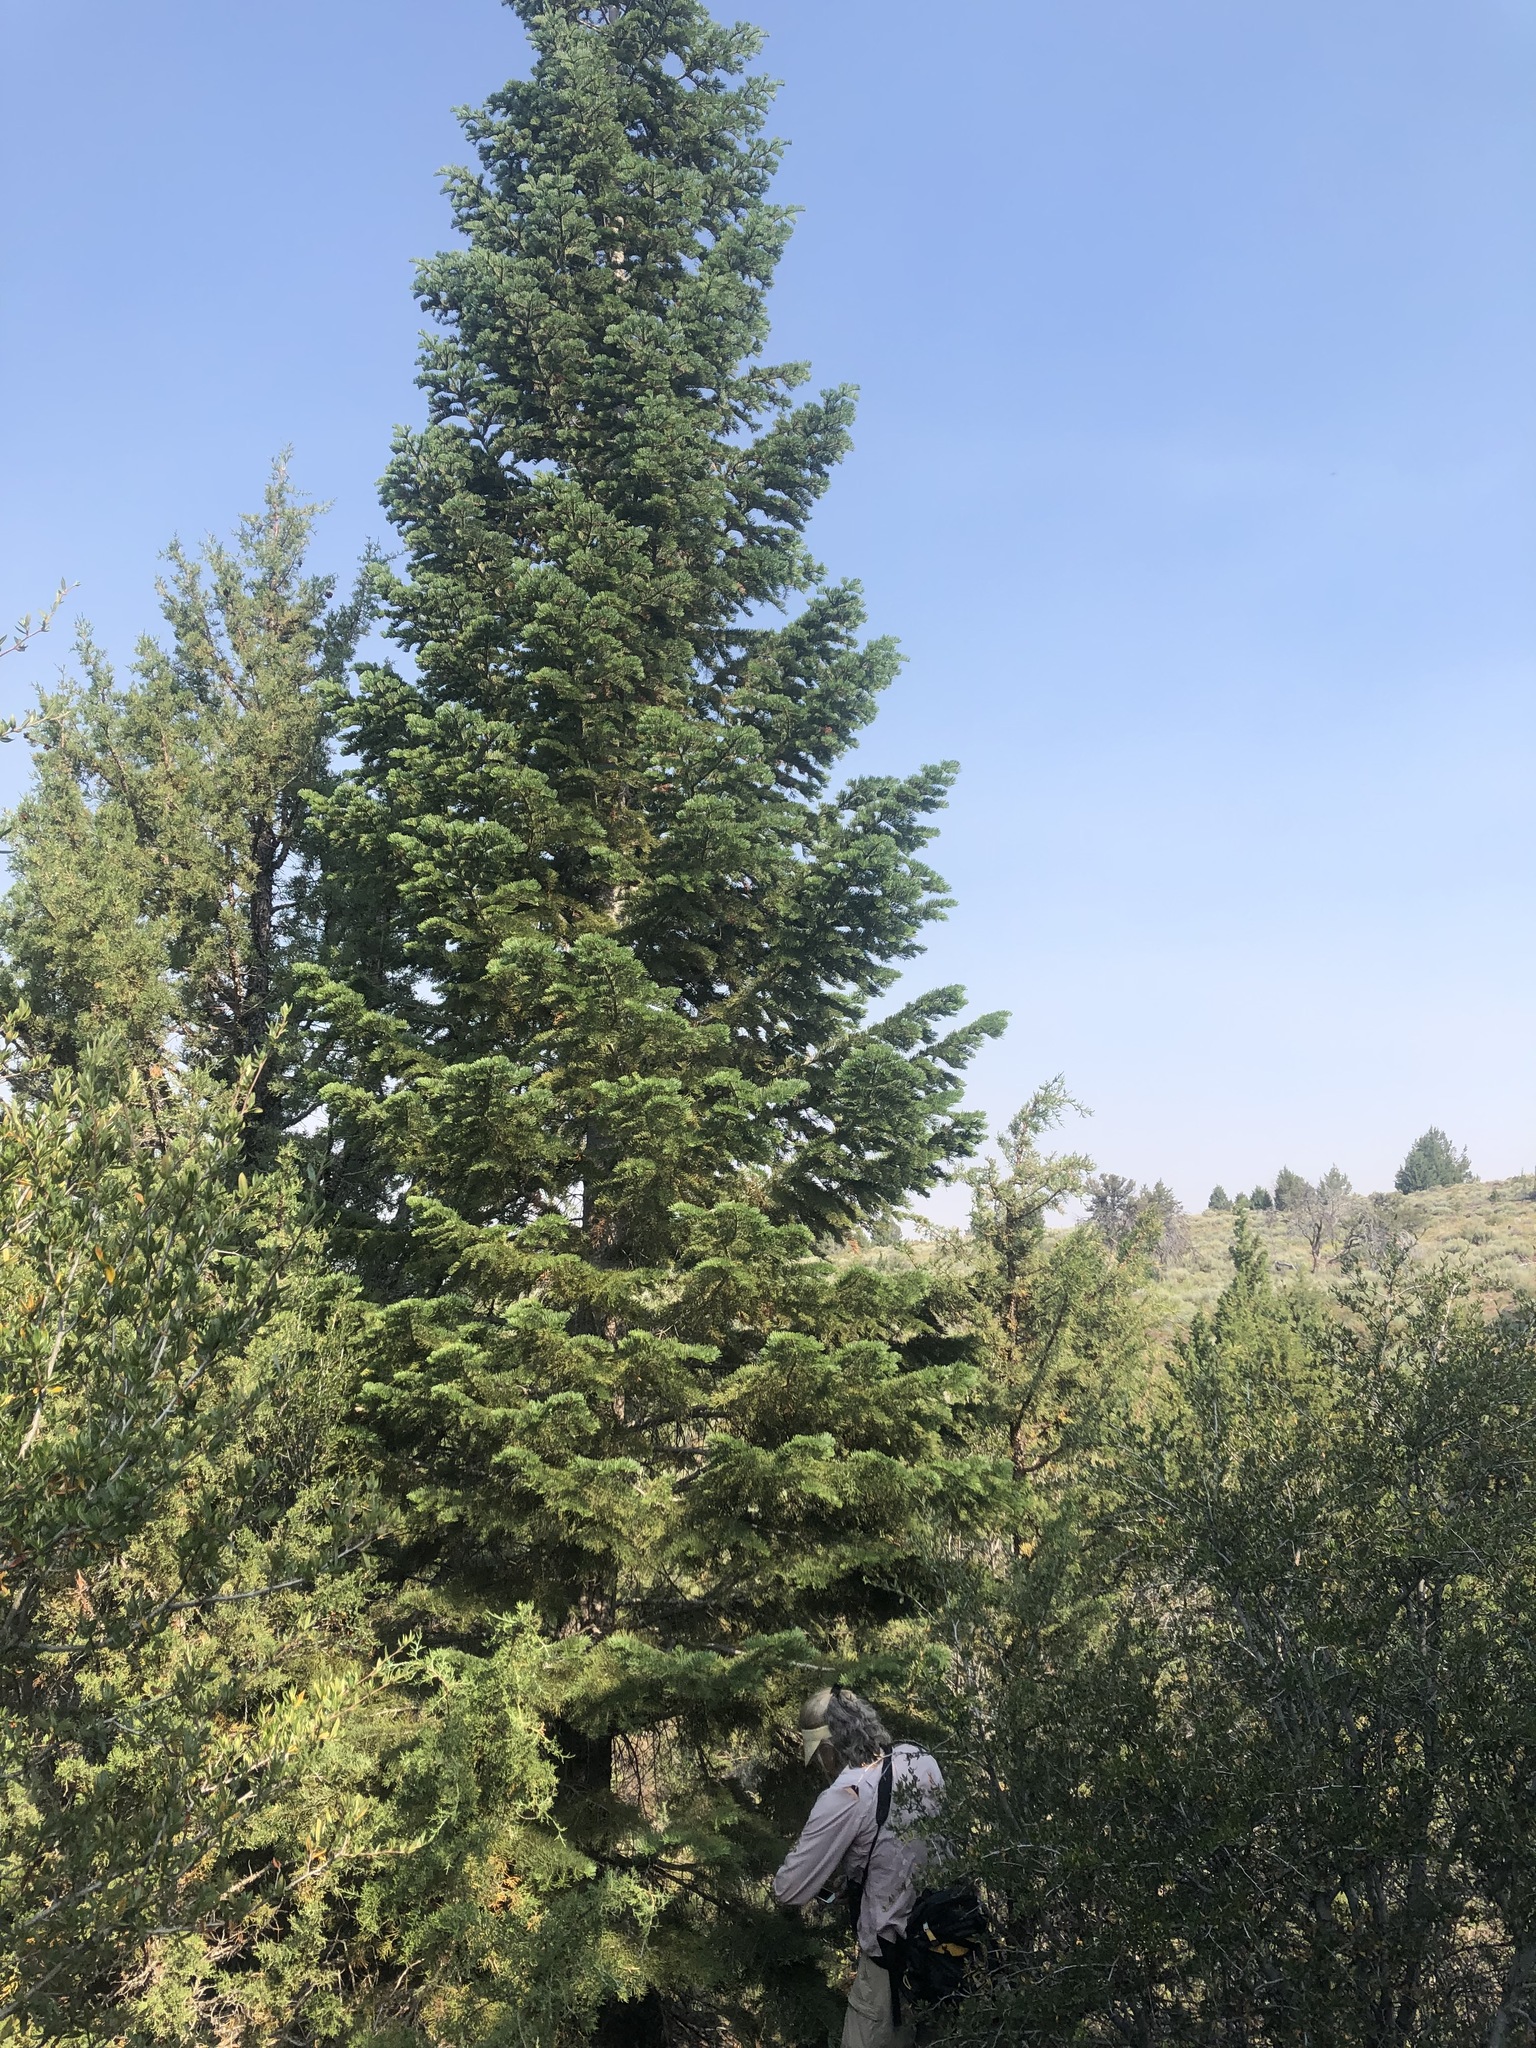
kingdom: Plantae
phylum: Tracheophyta
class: Pinopsida
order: Pinales
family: Pinaceae
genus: Abies
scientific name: Abies concolor
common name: Colorado fir
